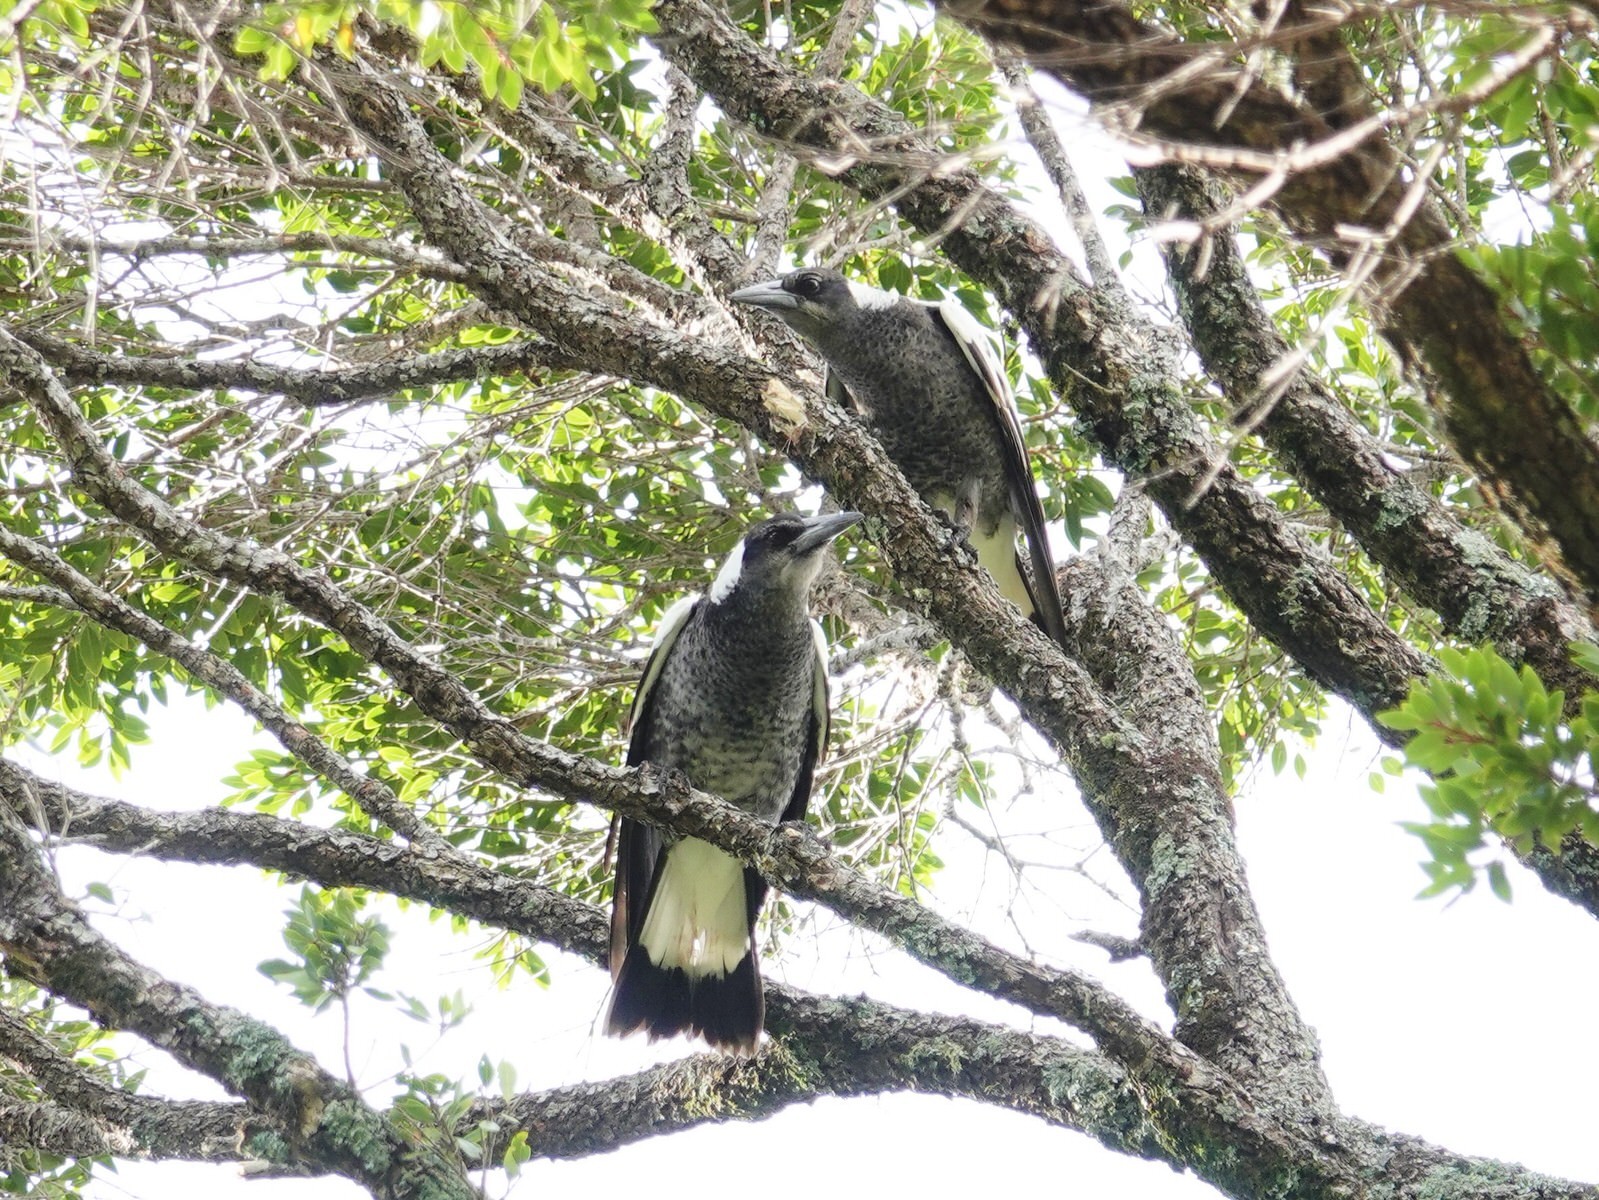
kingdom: Animalia
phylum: Chordata
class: Aves
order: Passeriformes
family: Cracticidae
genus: Gymnorhina
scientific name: Gymnorhina tibicen
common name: Australian magpie
